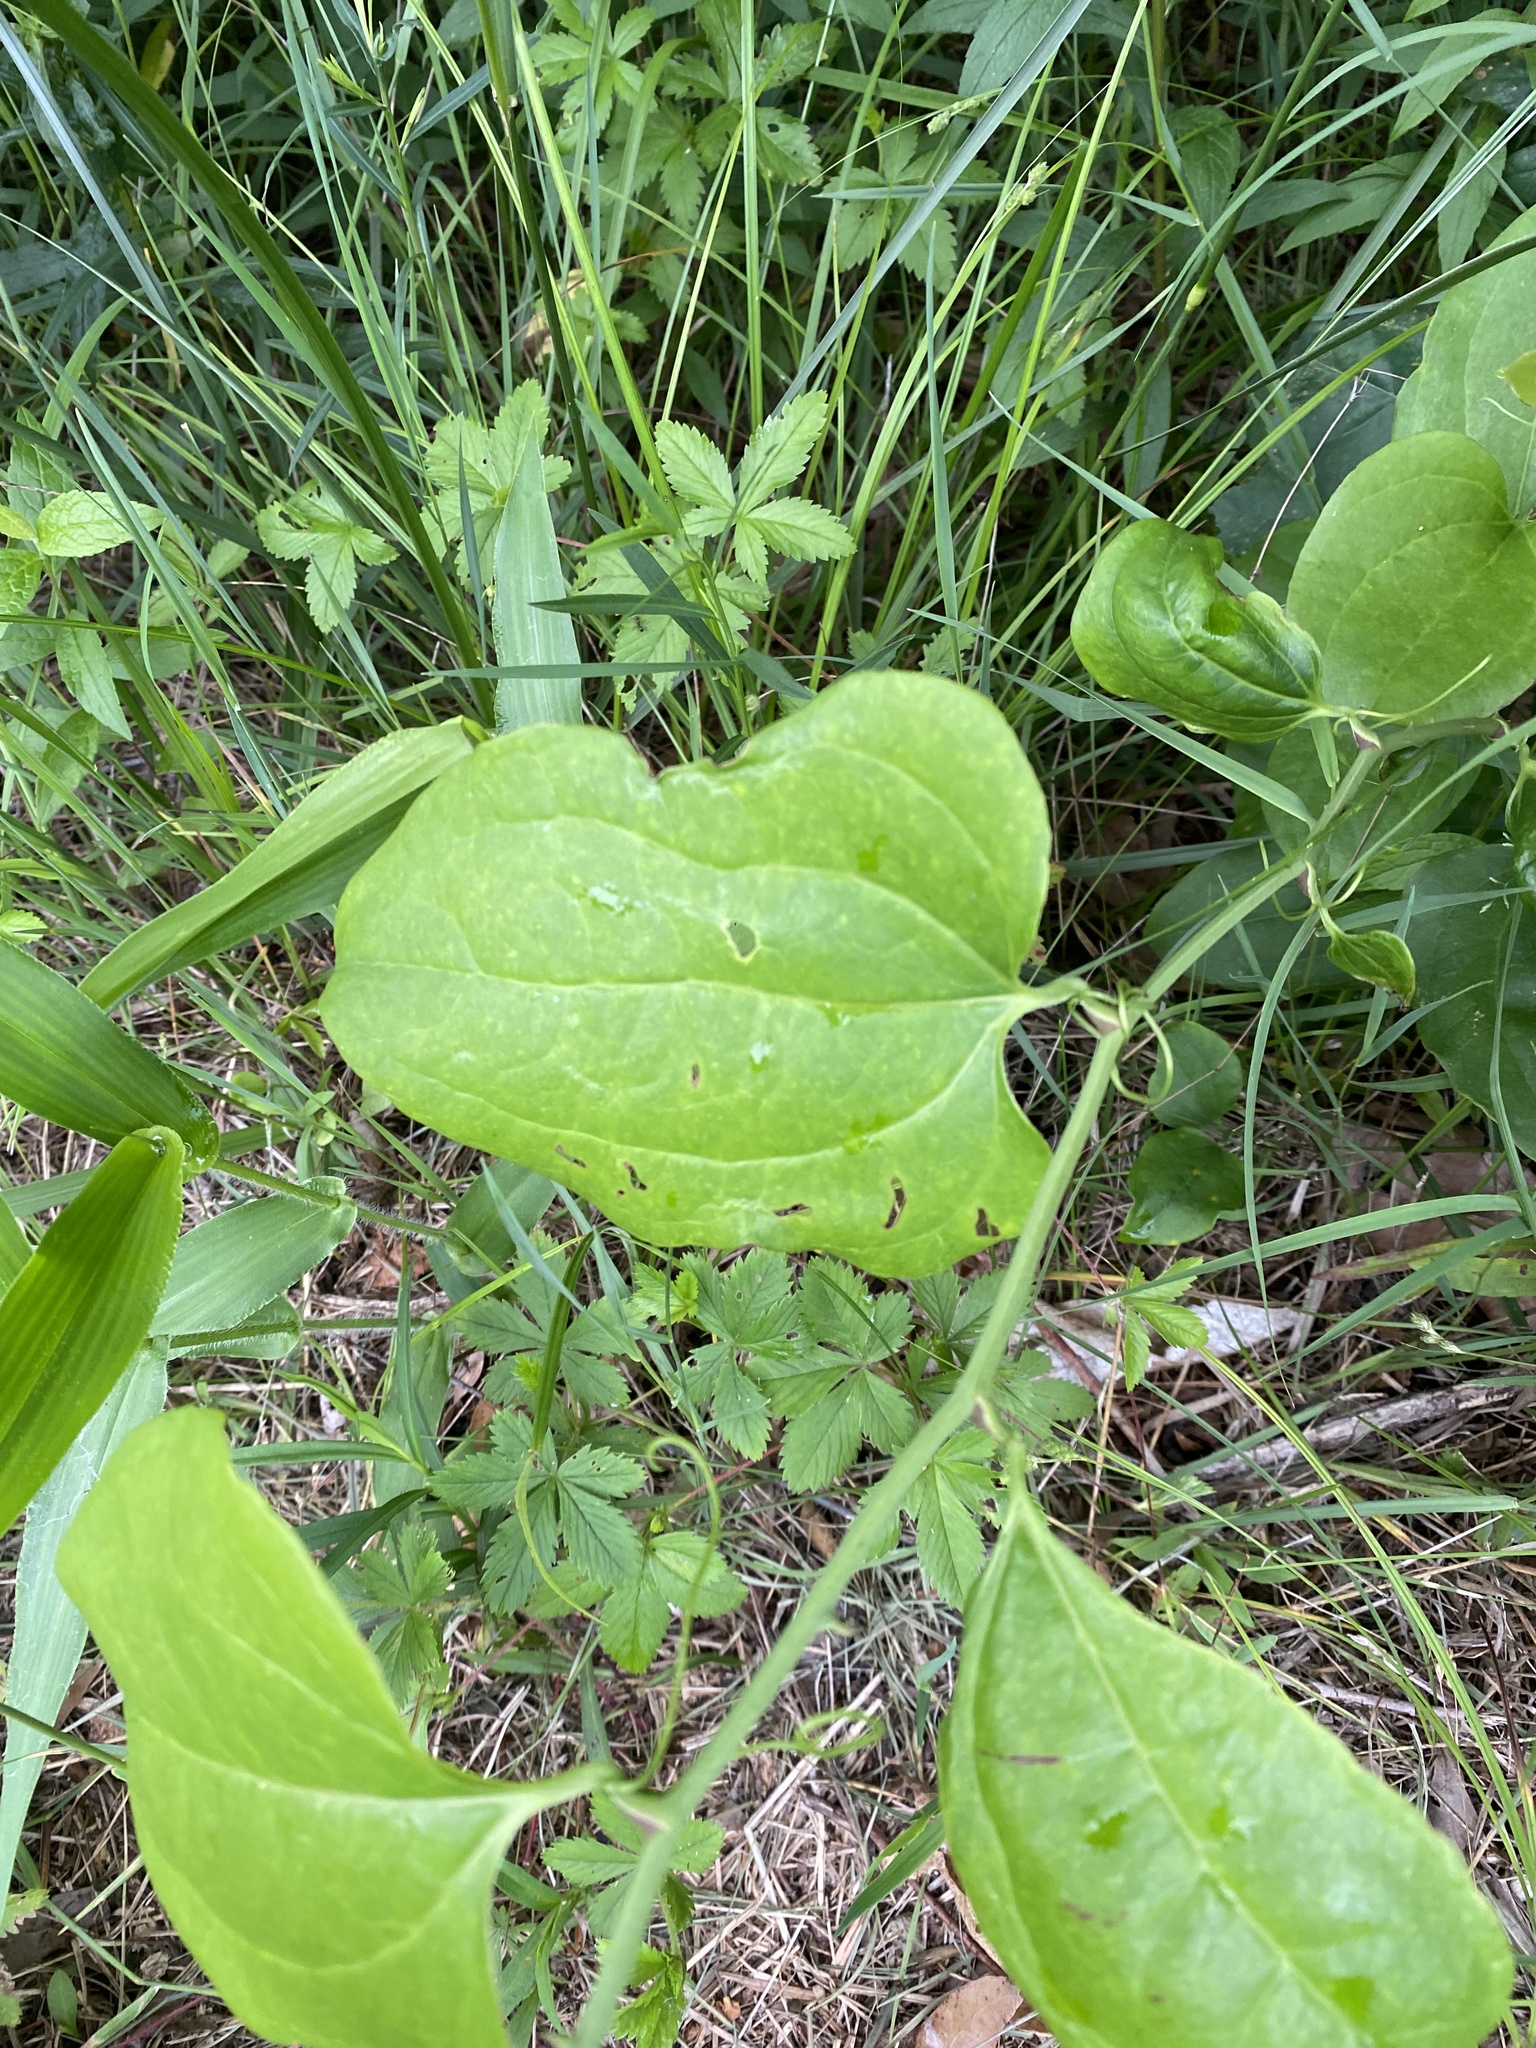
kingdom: Plantae
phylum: Tracheophyta
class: Liliopsida
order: Liliales
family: Smilacaceae
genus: Smilax
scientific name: Smilax tamnoides
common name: Hellfetter
